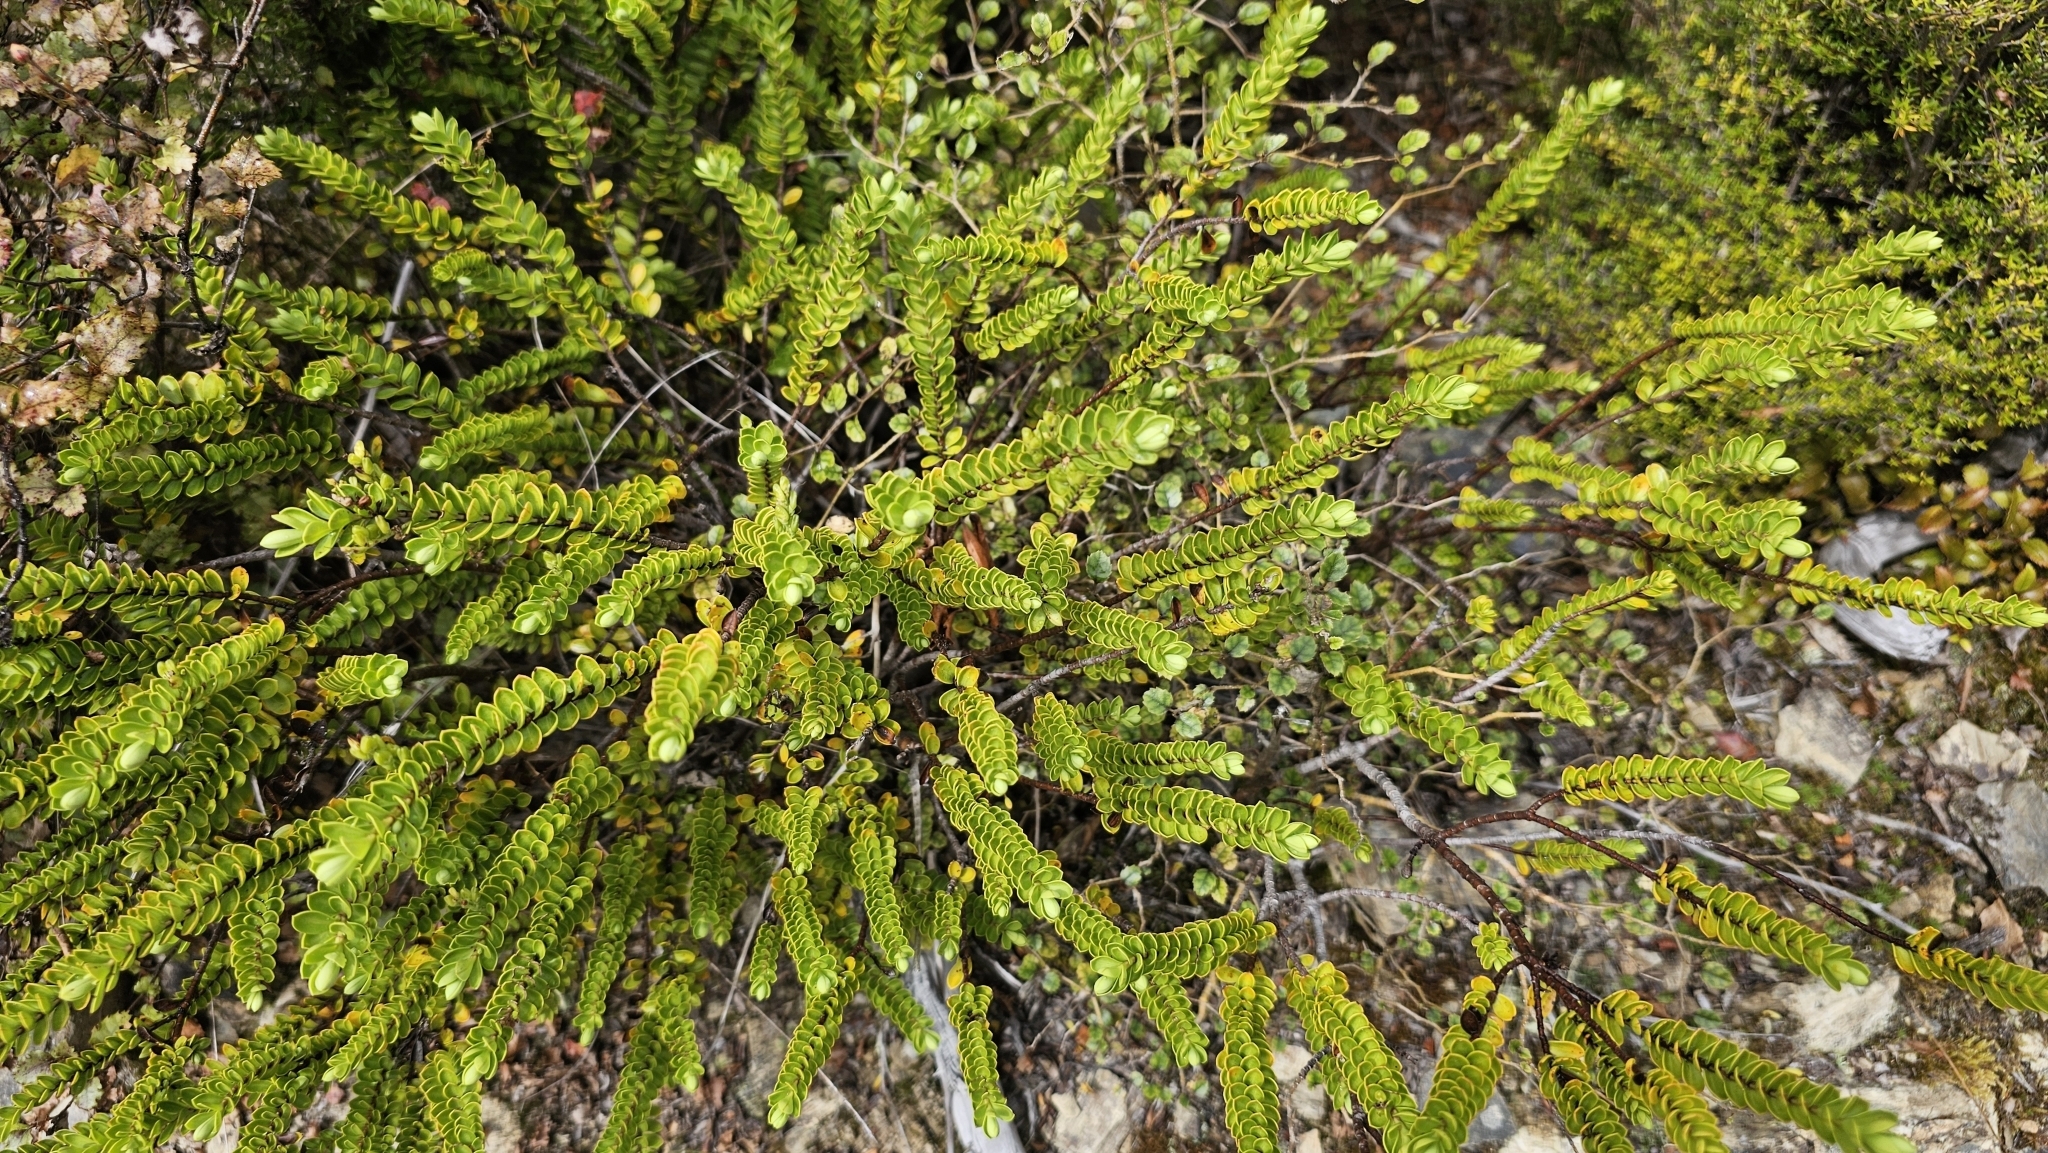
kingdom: Plantae
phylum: Tracheophyta
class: Magnoliopsida
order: Lamiales
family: Plantaginaceae
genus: Veronica
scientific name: Veronica vernicosa
